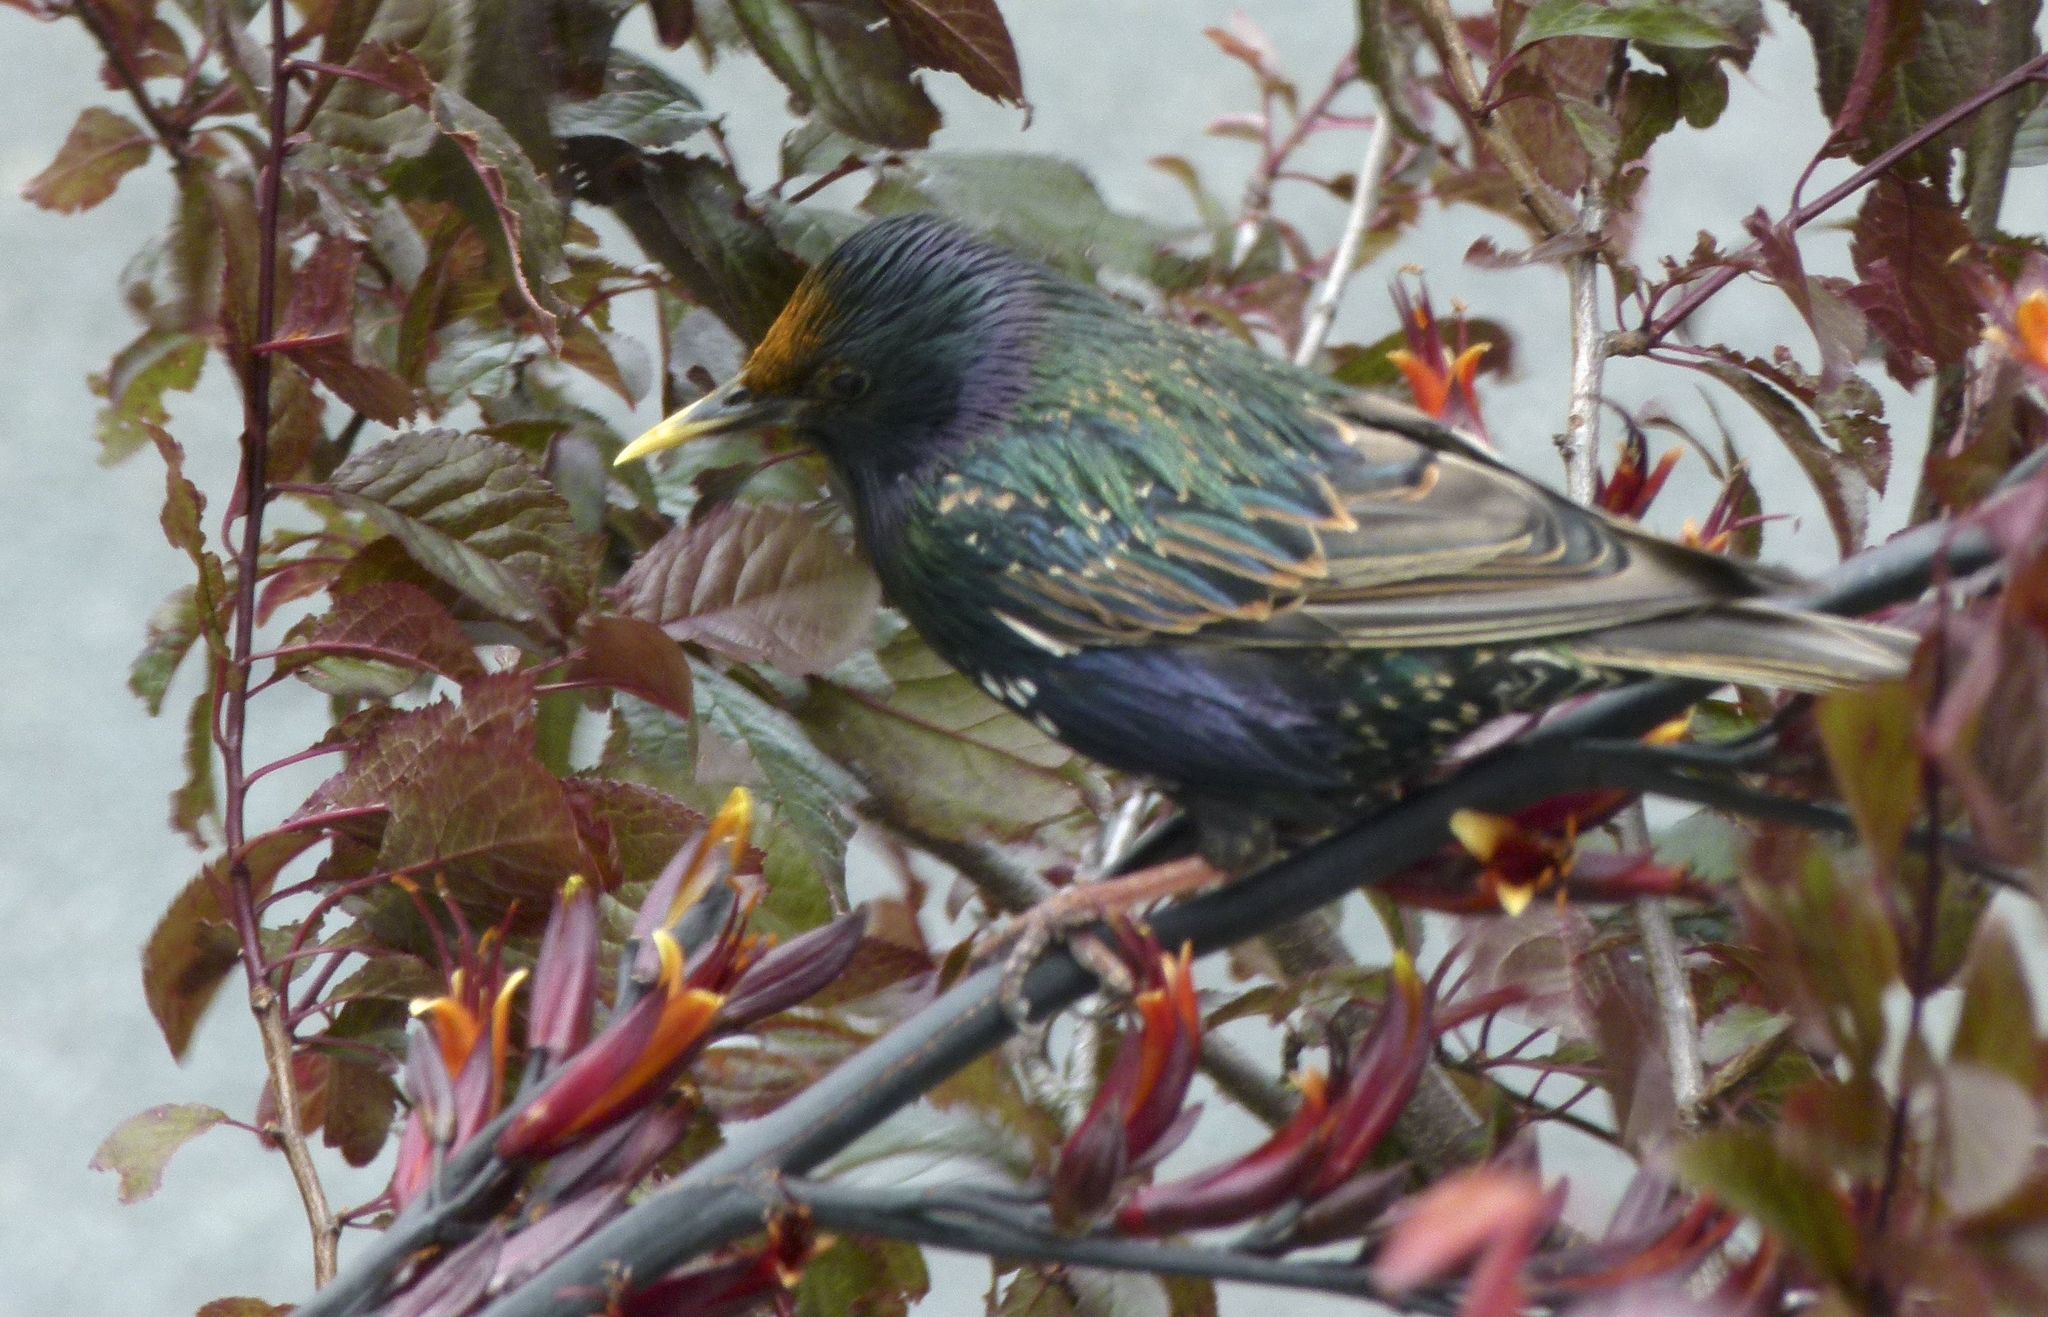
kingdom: Animalia
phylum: Chordata
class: Aves
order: Passeriformes
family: Sturnidae
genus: Sturnus
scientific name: Sturnus vulgaris
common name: Common starling
